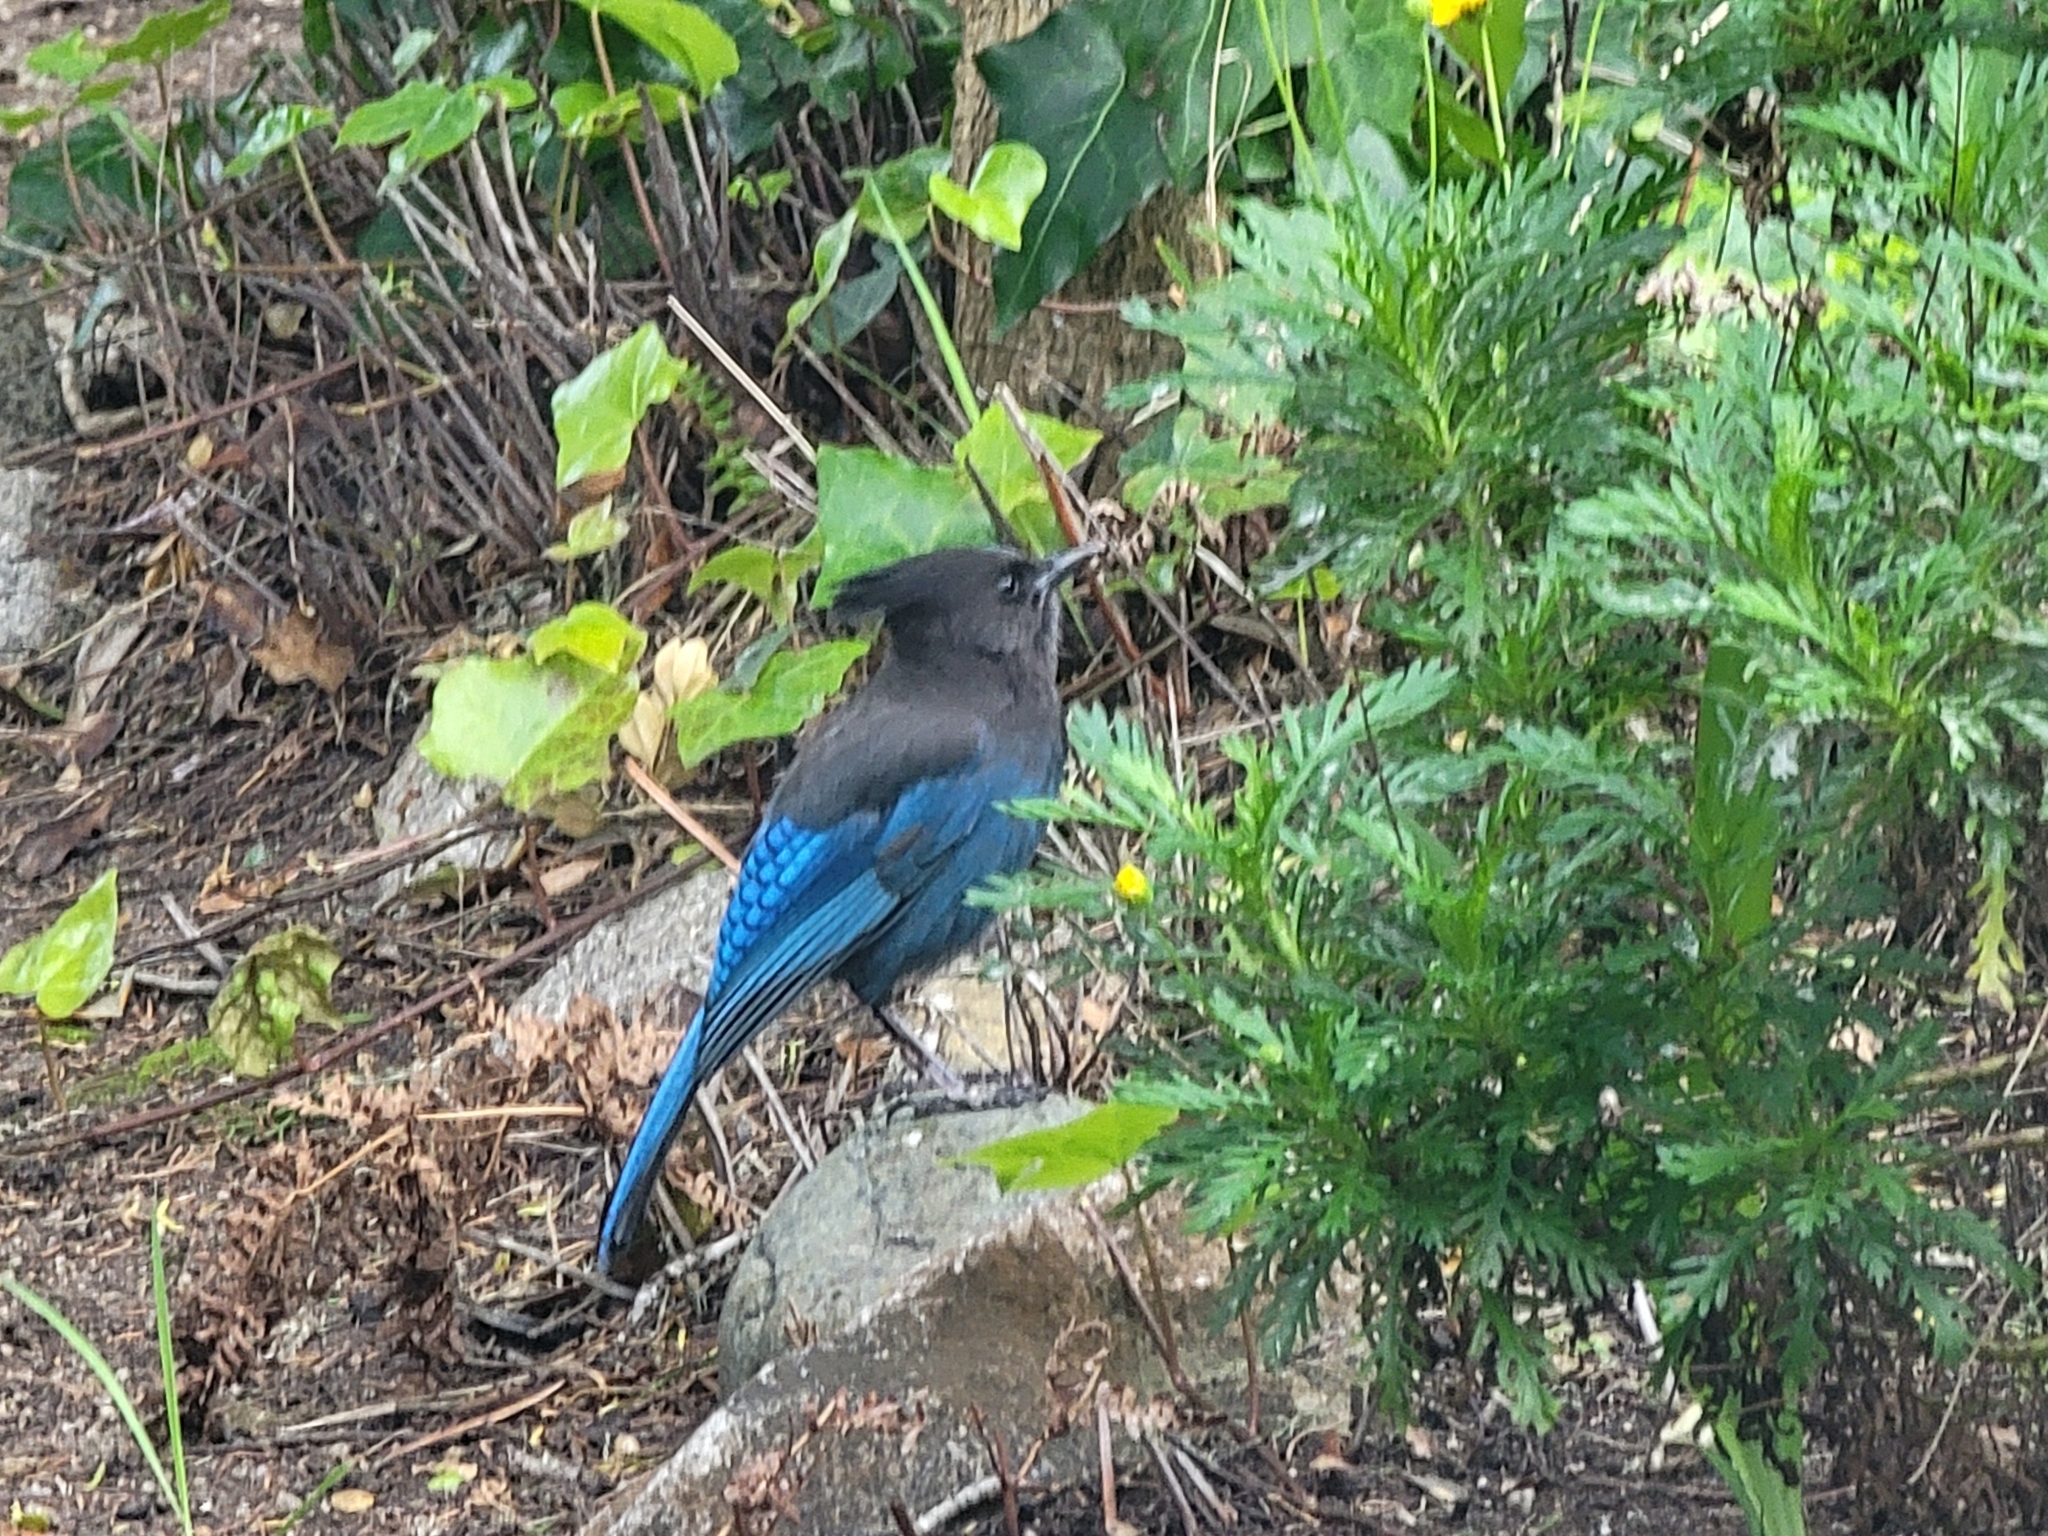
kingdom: Animalia
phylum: Chordata
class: Aves
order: Passeriformes
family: Corvidae
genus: Cyanocitta
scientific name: Cyanocitta stelleri
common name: Steller's jay
